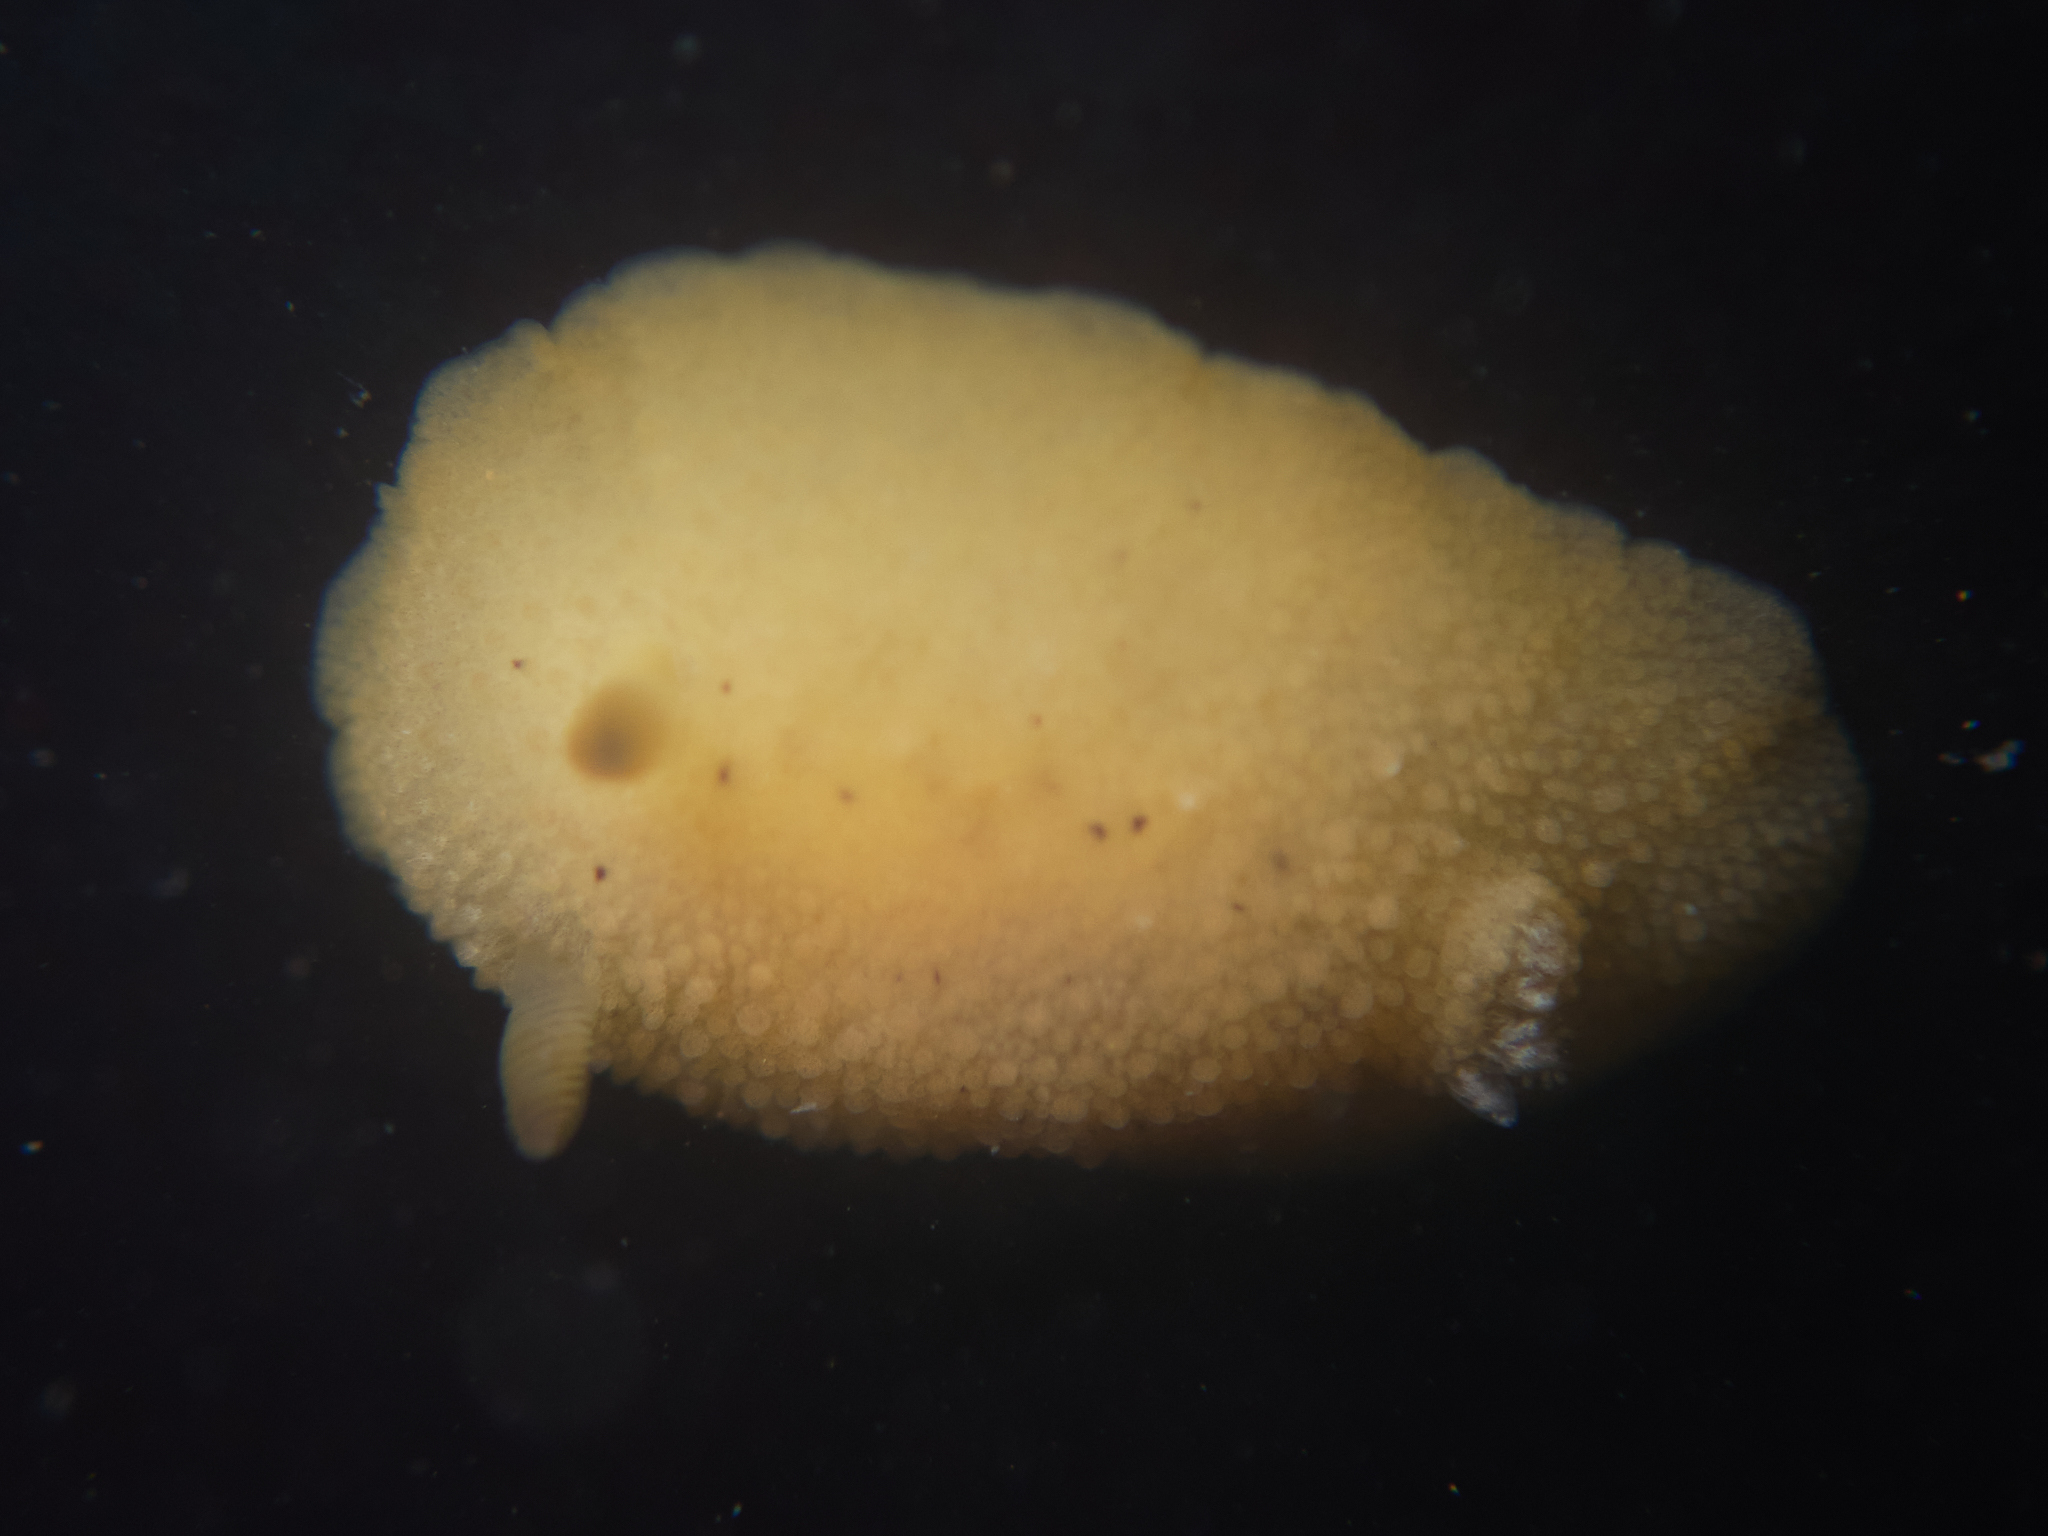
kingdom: Animalia
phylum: Mollusca
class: Gastropoda
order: Nudibranchia
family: Discodorididae
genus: Geitodoris
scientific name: Geitodoris heathi
